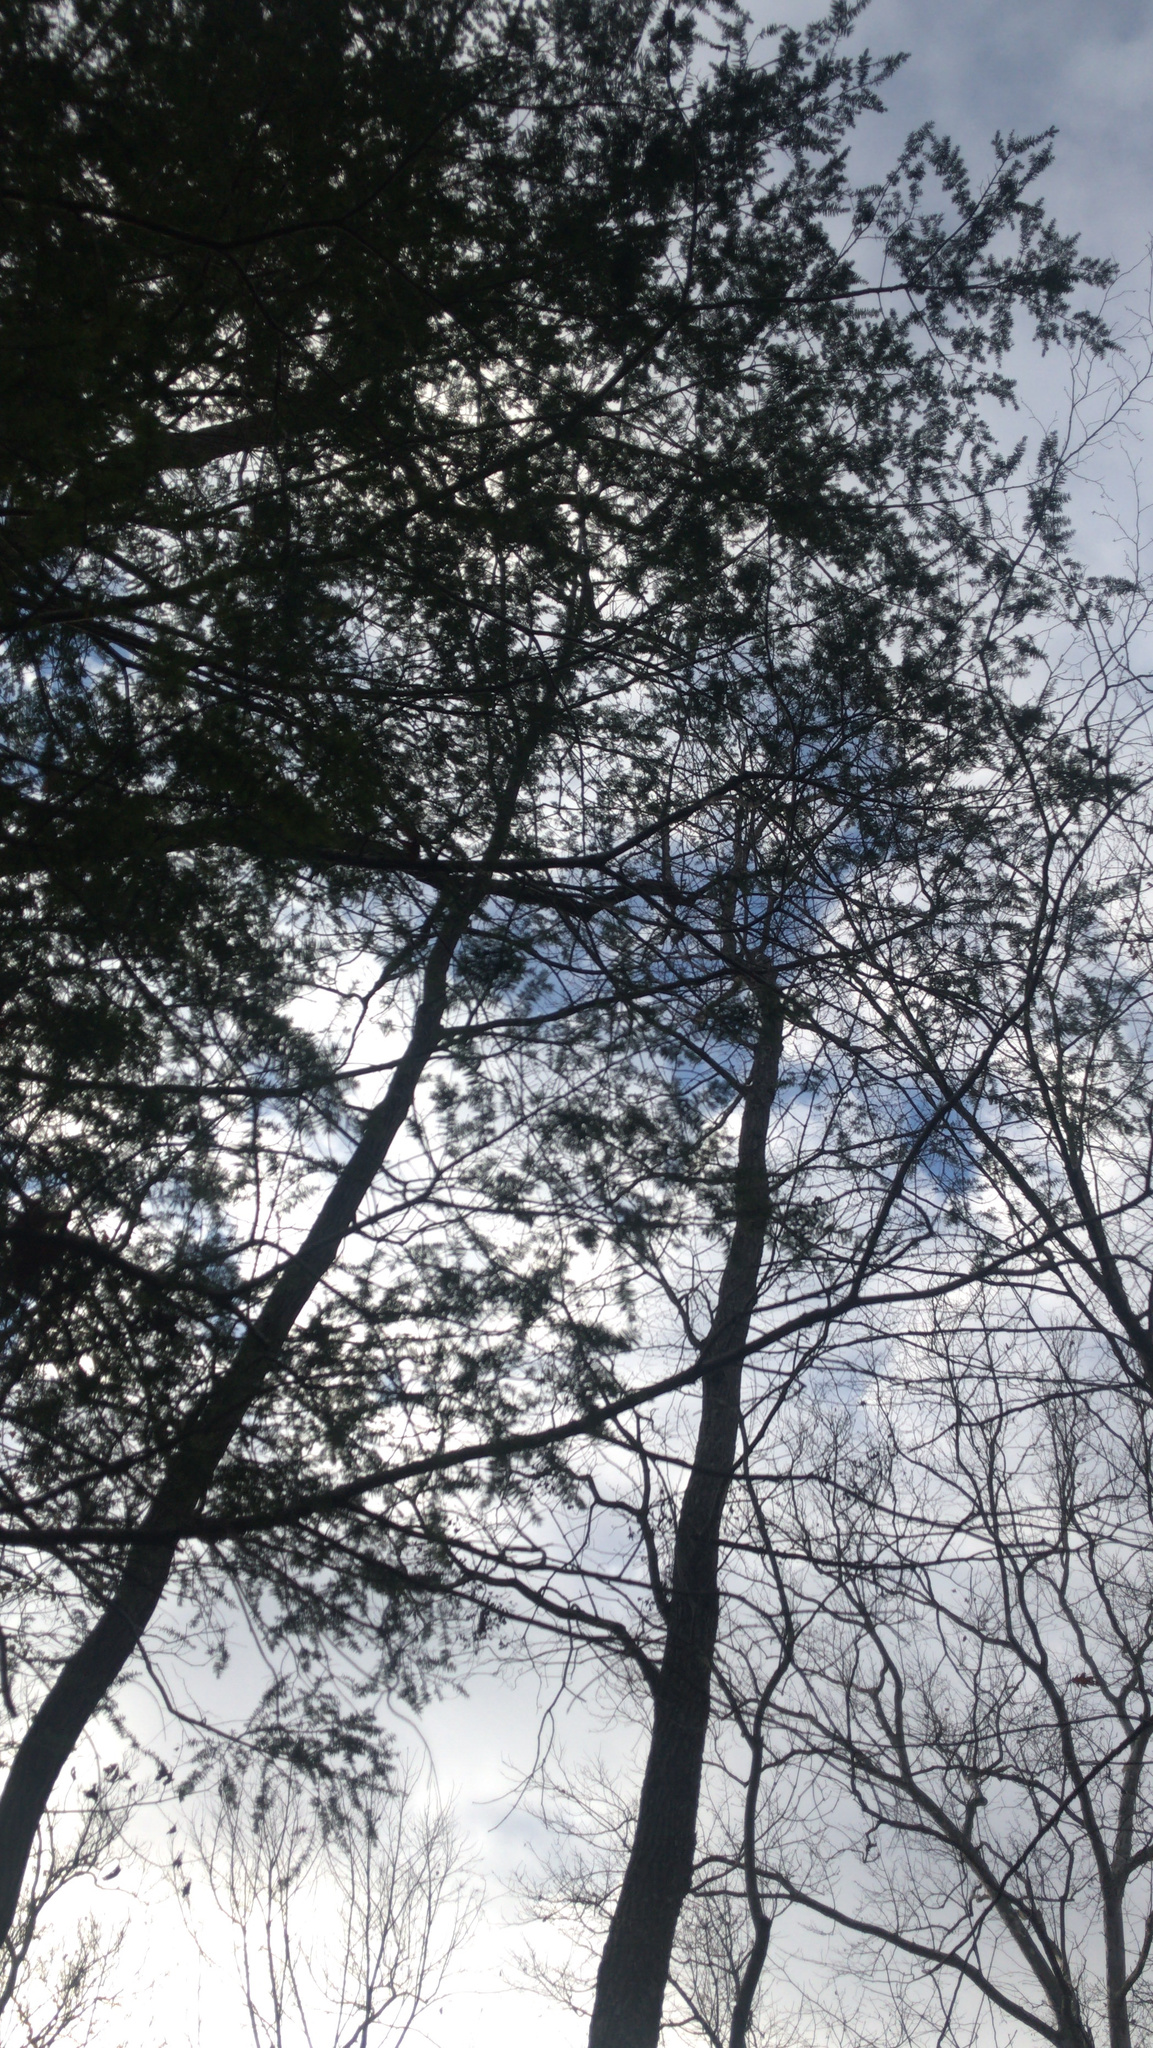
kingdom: Plantae
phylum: Tracheophyta
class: Pinopsida
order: Pinales
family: Pinaceae
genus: Tsuga
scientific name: Tsuga canadensis
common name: Eastern hemlock
